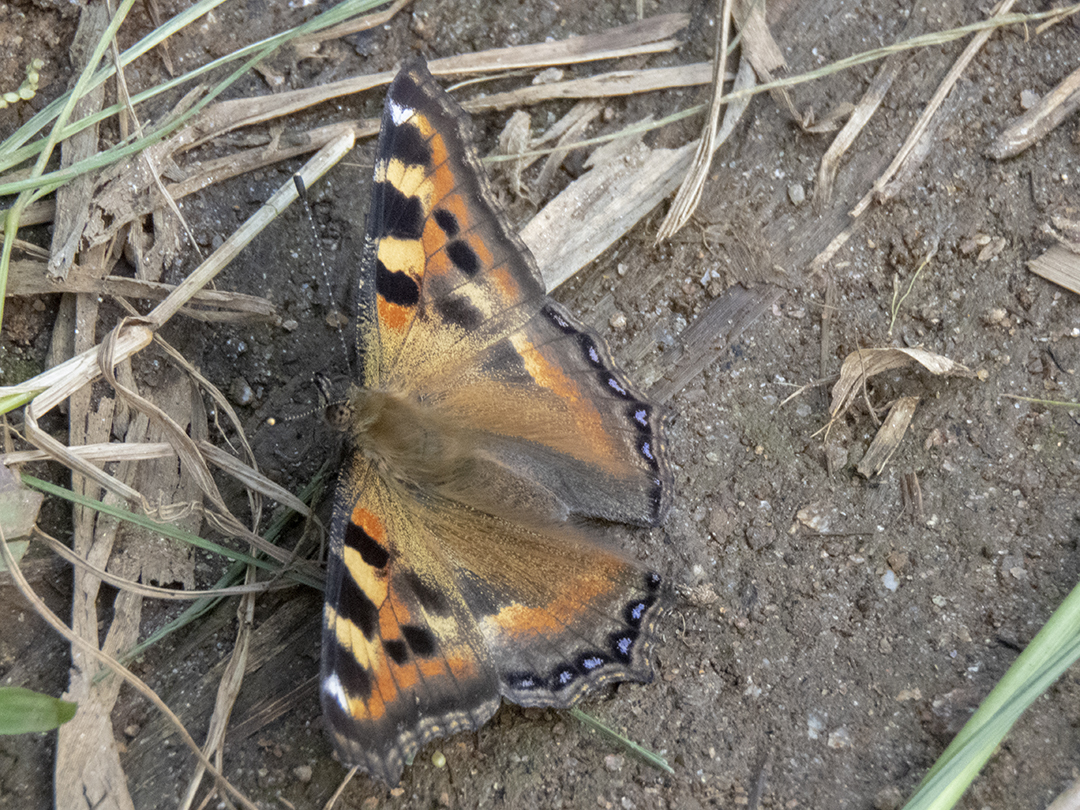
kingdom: Animalia
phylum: Arthropoda
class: Insecta
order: Lepidoptera
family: Nymphalidae
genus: Aglais
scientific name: Aglais caschmirensis
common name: Indian tortoiseshell
